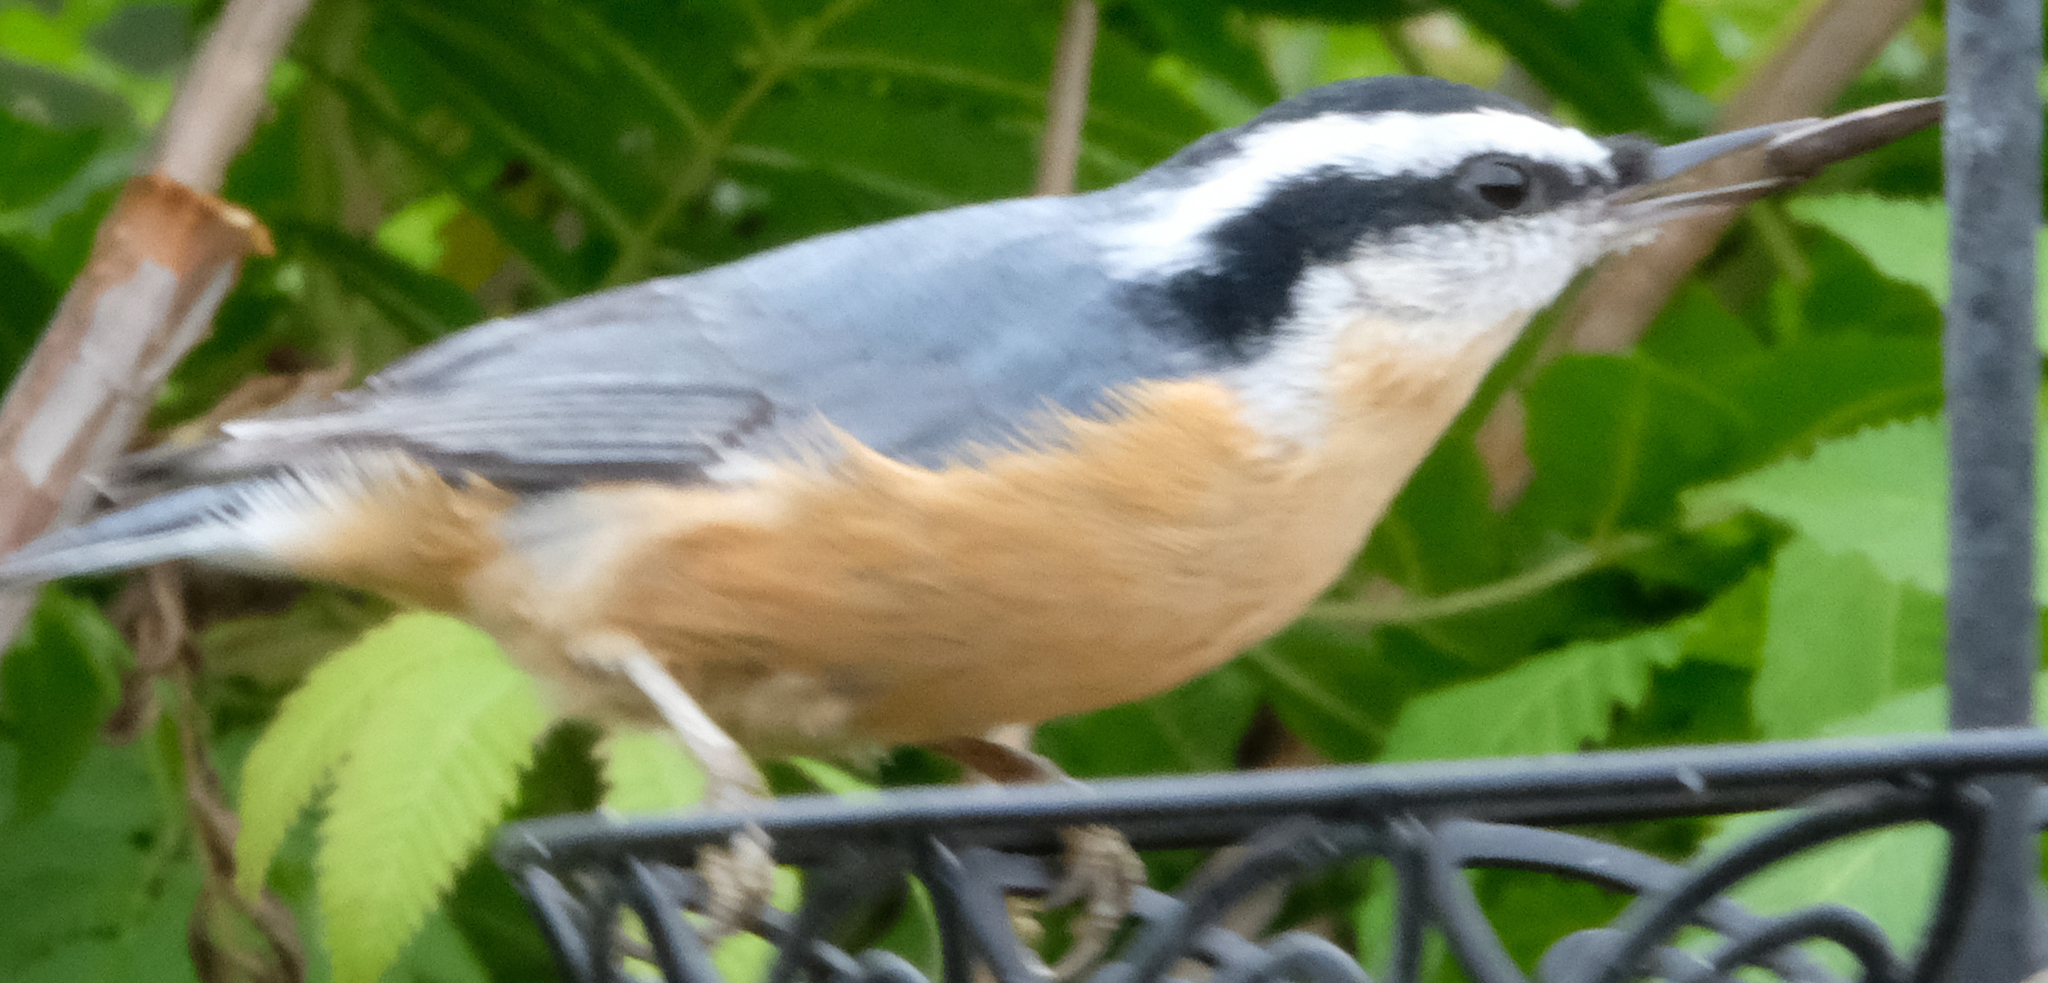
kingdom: Animalia
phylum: Chordata
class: Aves
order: Passeriformes
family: Sittidae
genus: Sitta
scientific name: Sitta canadensis
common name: Red-breasted nuthatch
